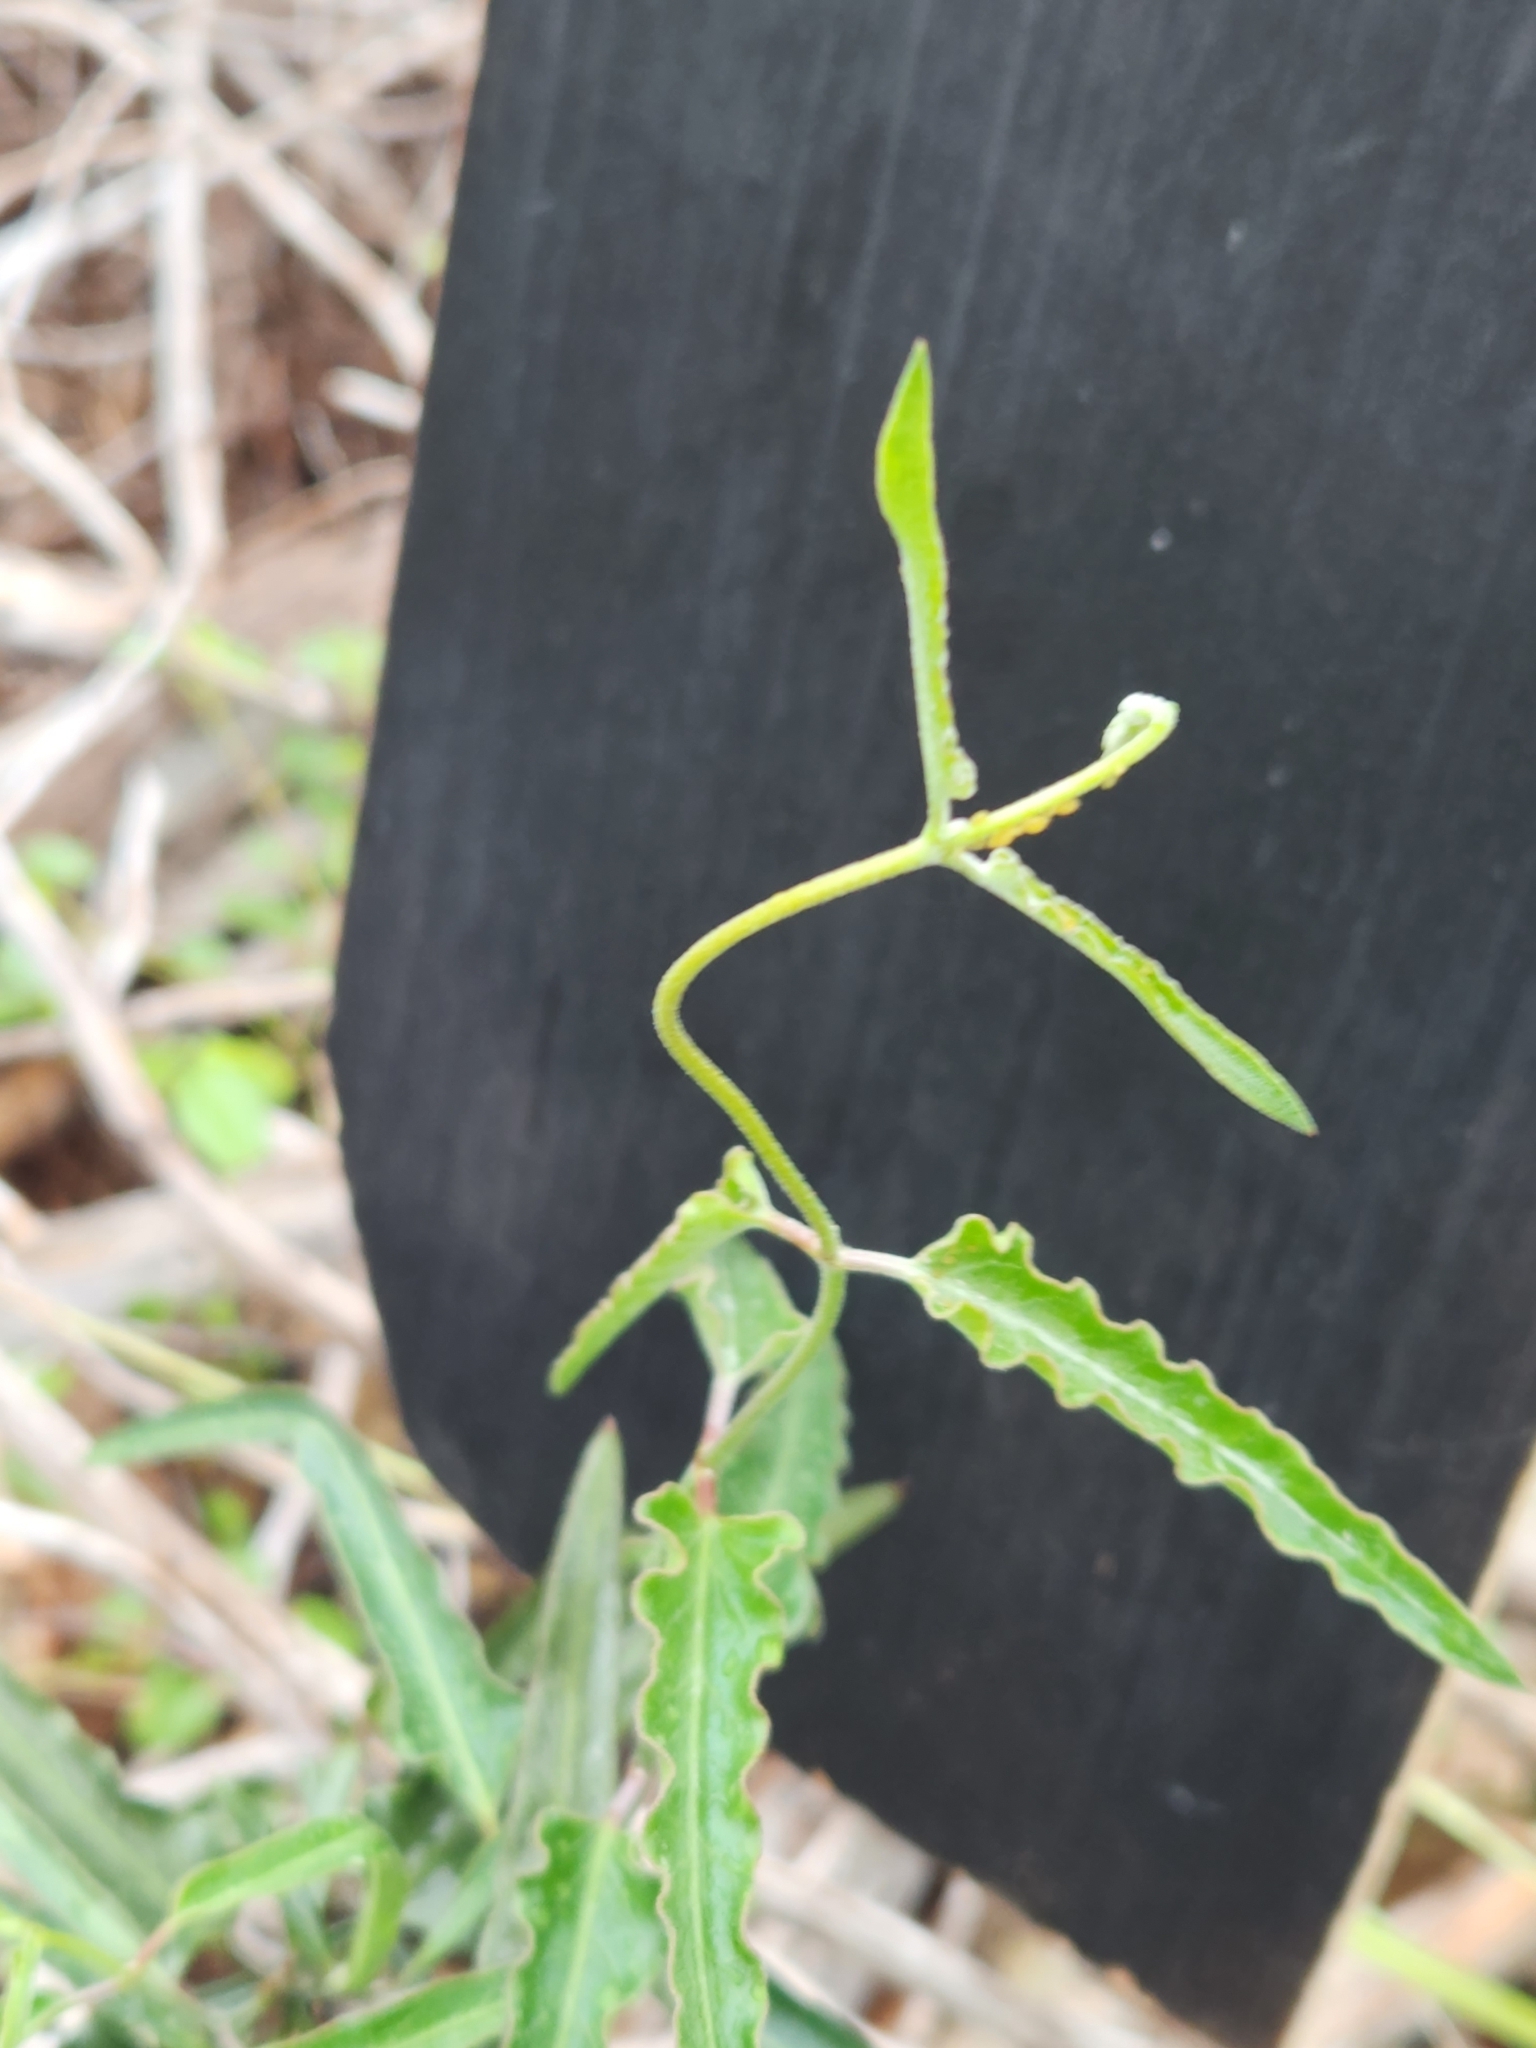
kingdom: Plantae
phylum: Tracheophyta
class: Magnoliopsida
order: Gentianales
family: Apocynaceae
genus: Funastrum
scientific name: Funastrum crispum
